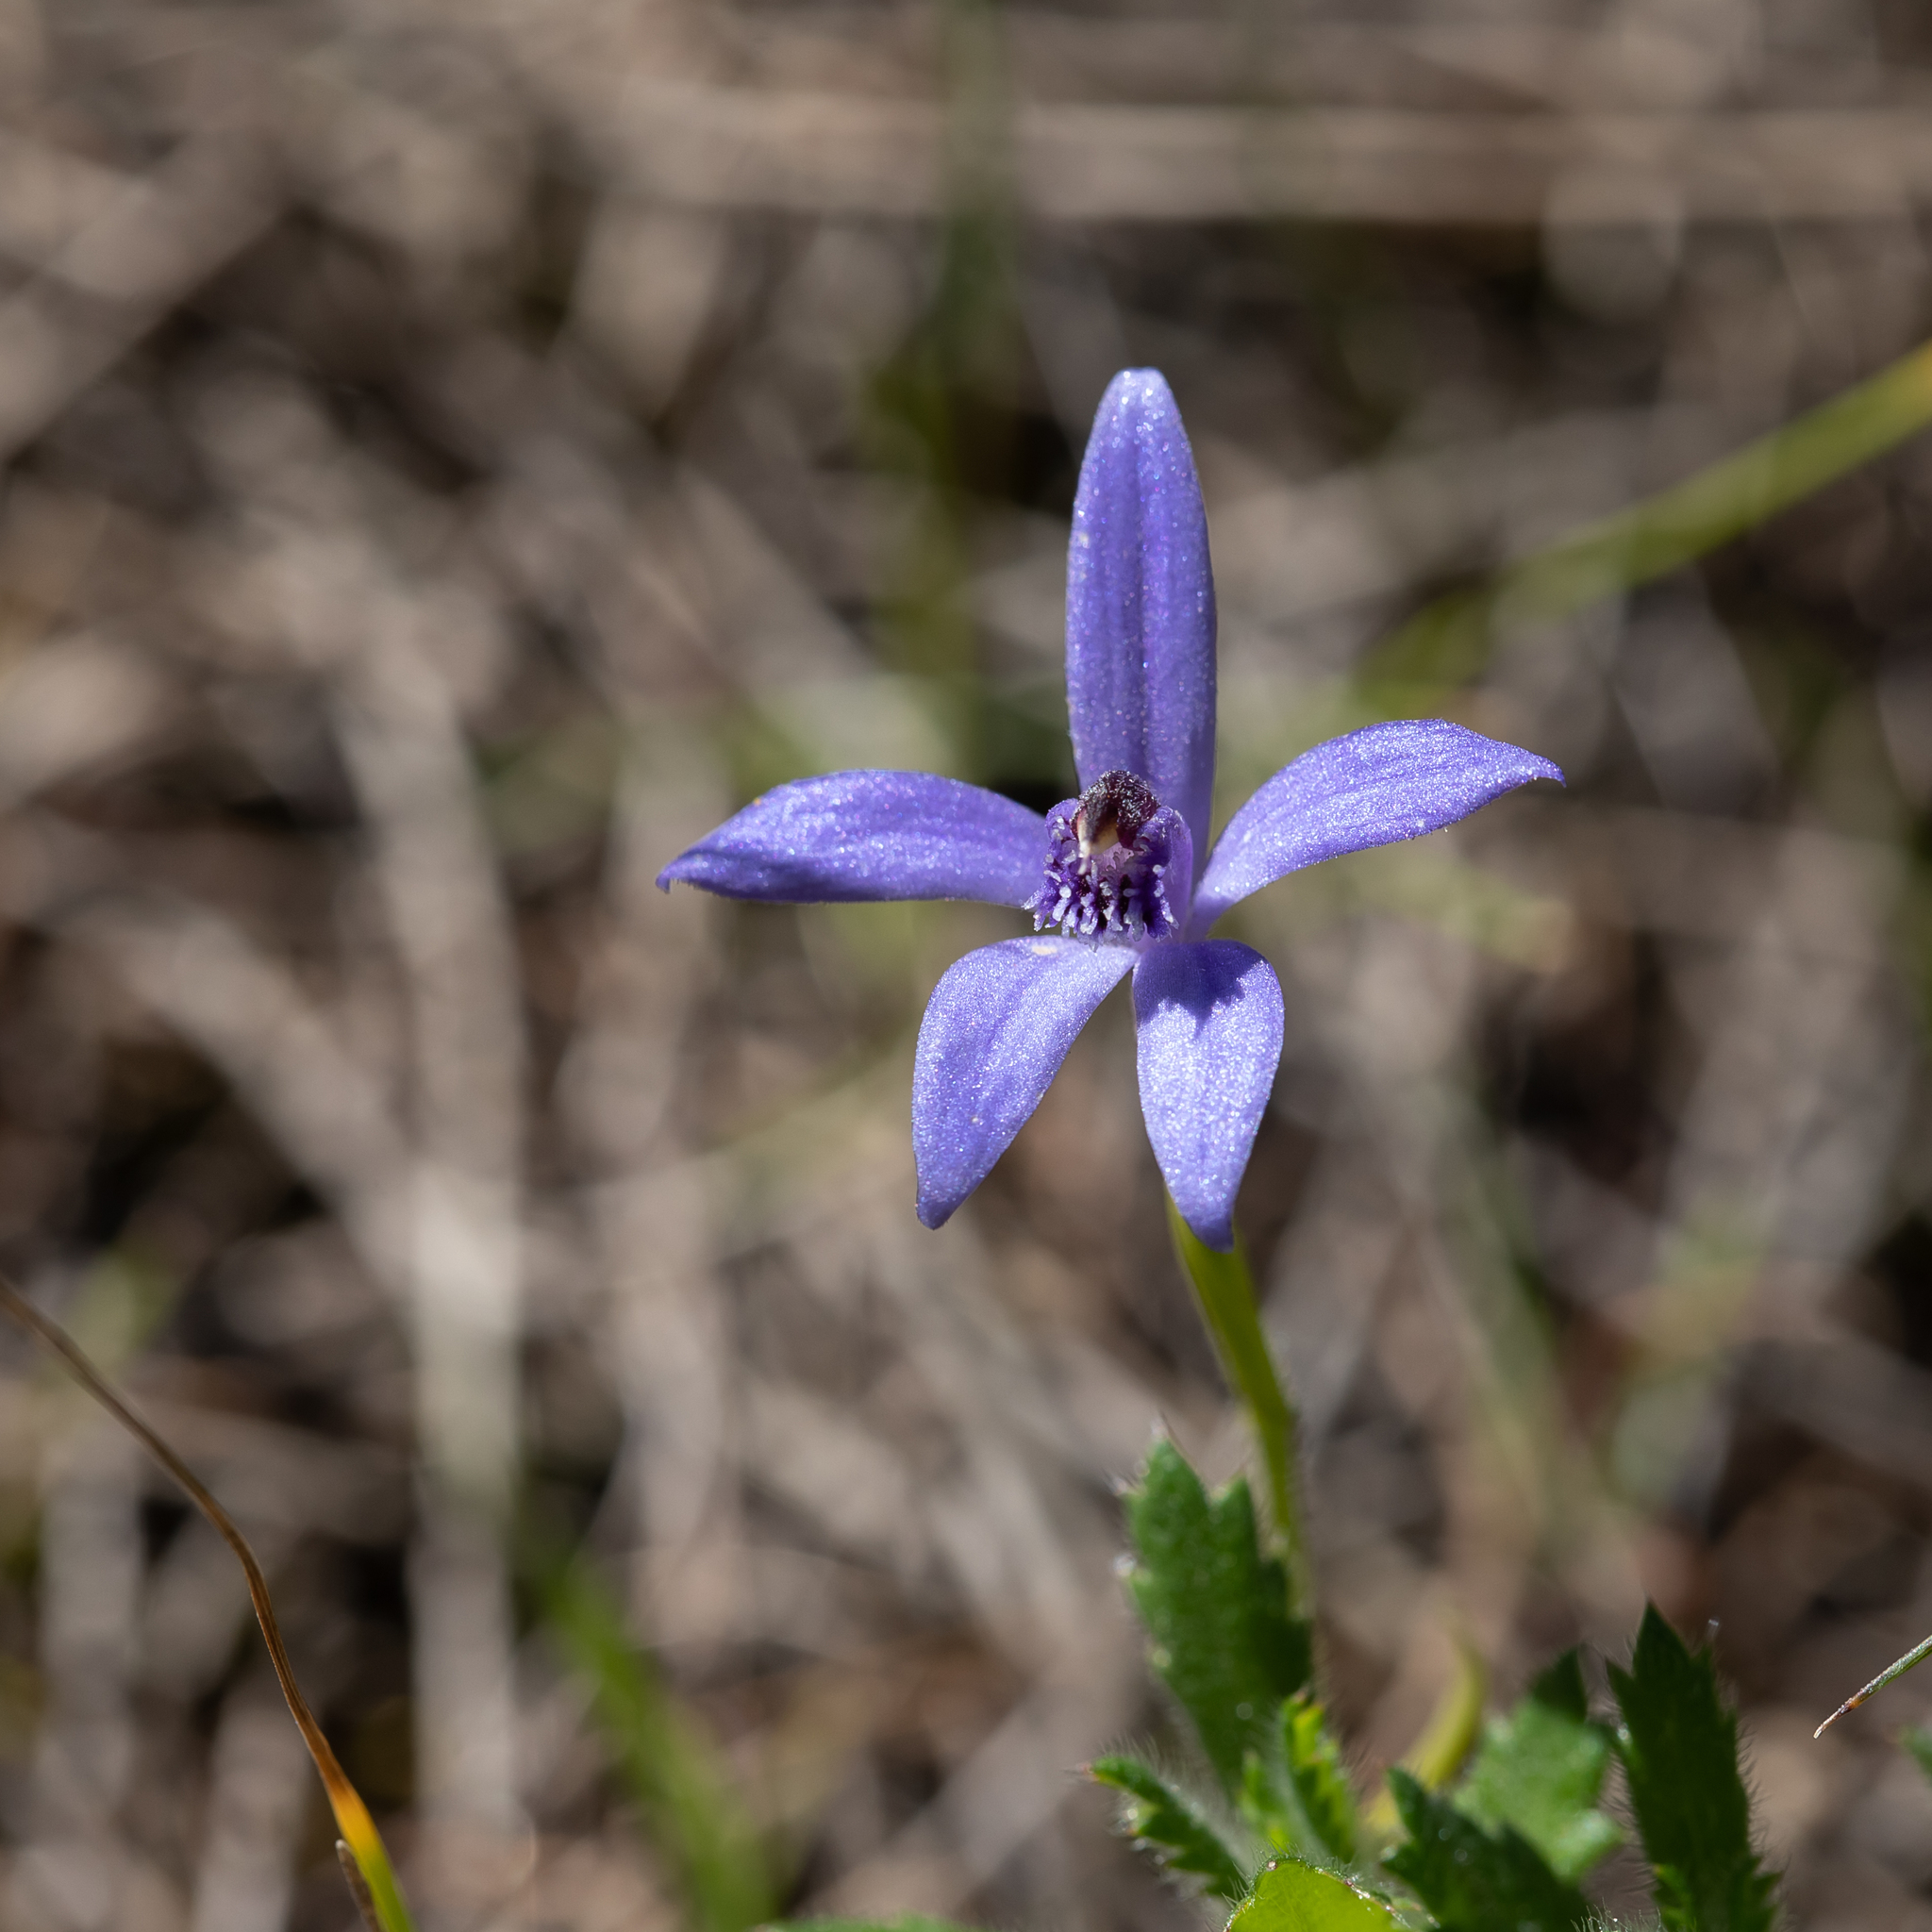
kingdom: Plantae
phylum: Tracheophyta
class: Liliopsida
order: Asparagales
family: Orchidaceae
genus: Pheladenia
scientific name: Pheladenia deformis
